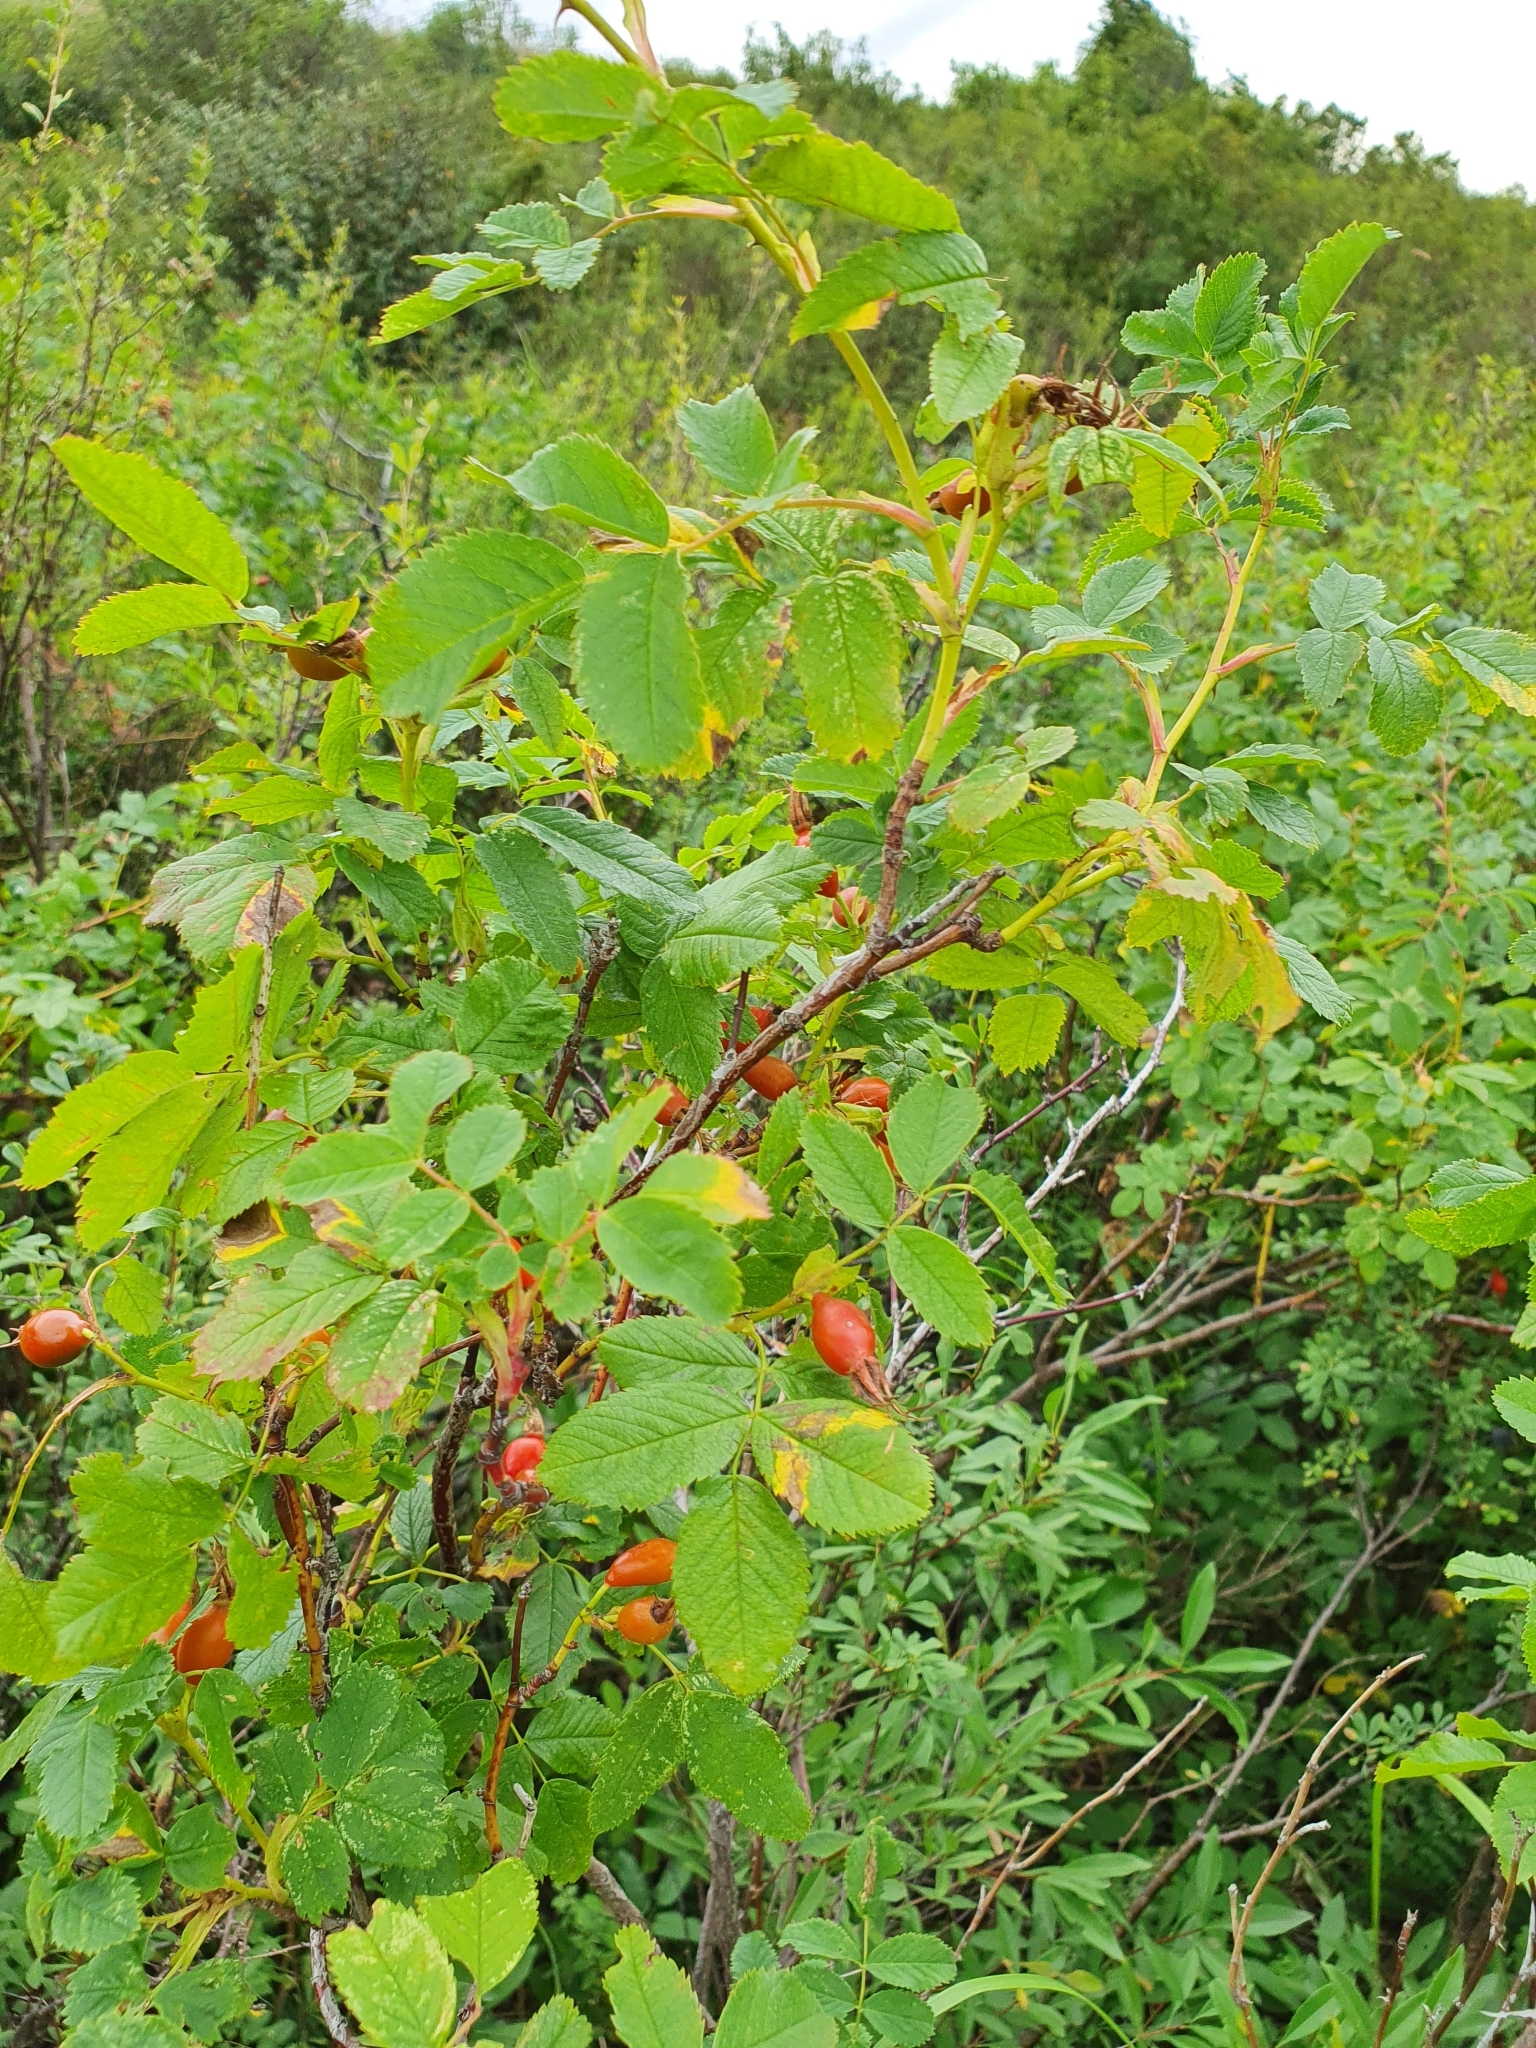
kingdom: Plantae
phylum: Tracheophyta
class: Magnoliopsida
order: Rosales
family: Rosaceae
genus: Rosa
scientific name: Rosa majalis
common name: Cinnamon rose
